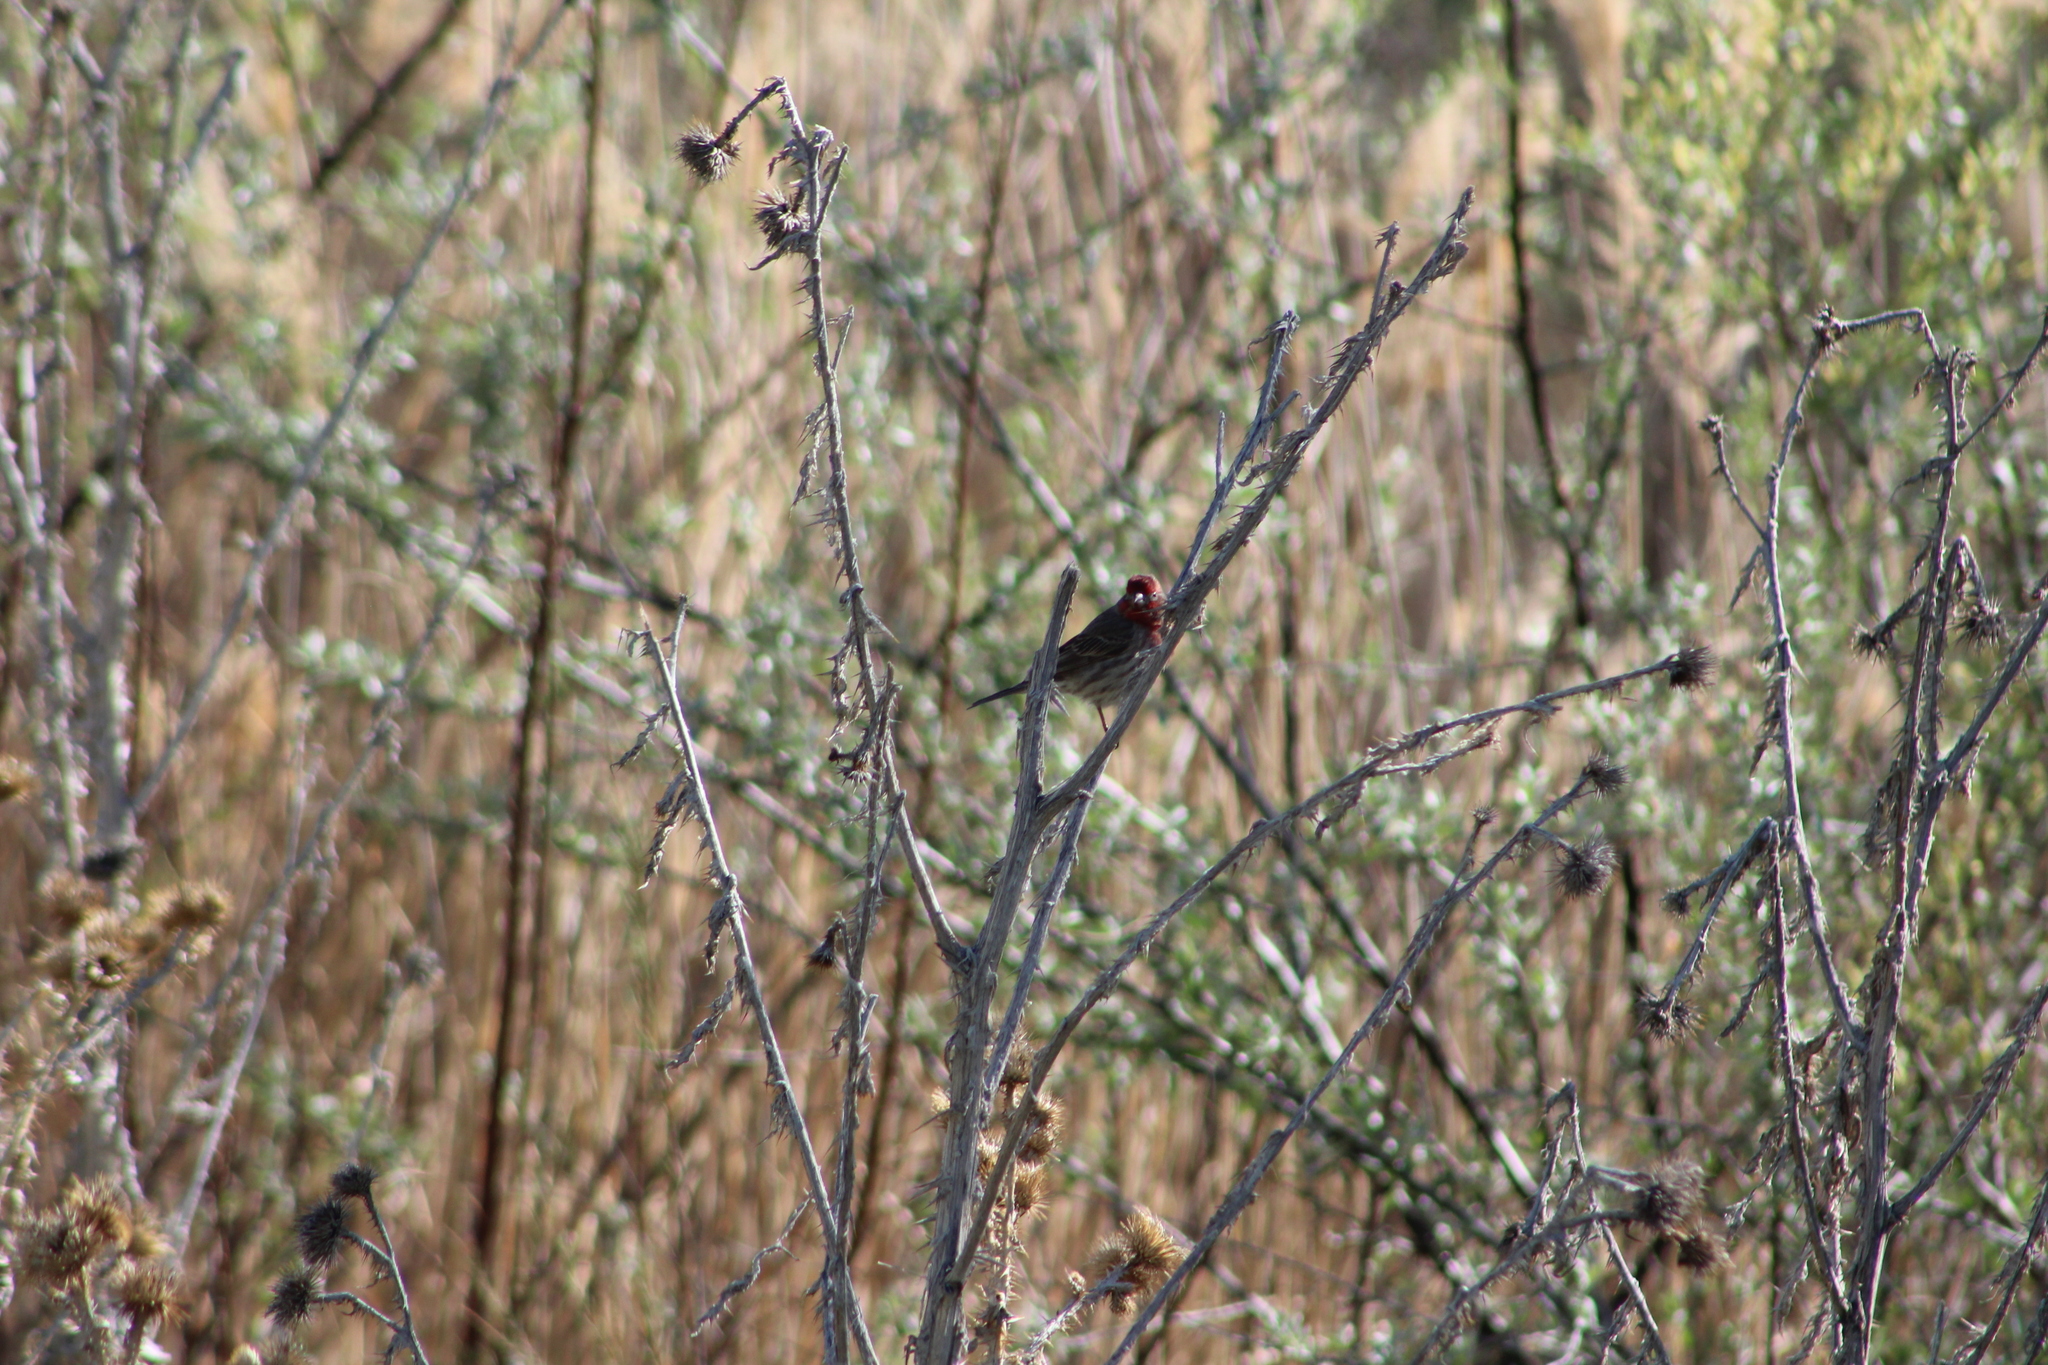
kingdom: Animalia
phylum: Chordata
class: Aves
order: Passeriformes
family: Fringillidae
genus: Haemorhous
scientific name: Haemorhous mexicanus
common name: House finch
